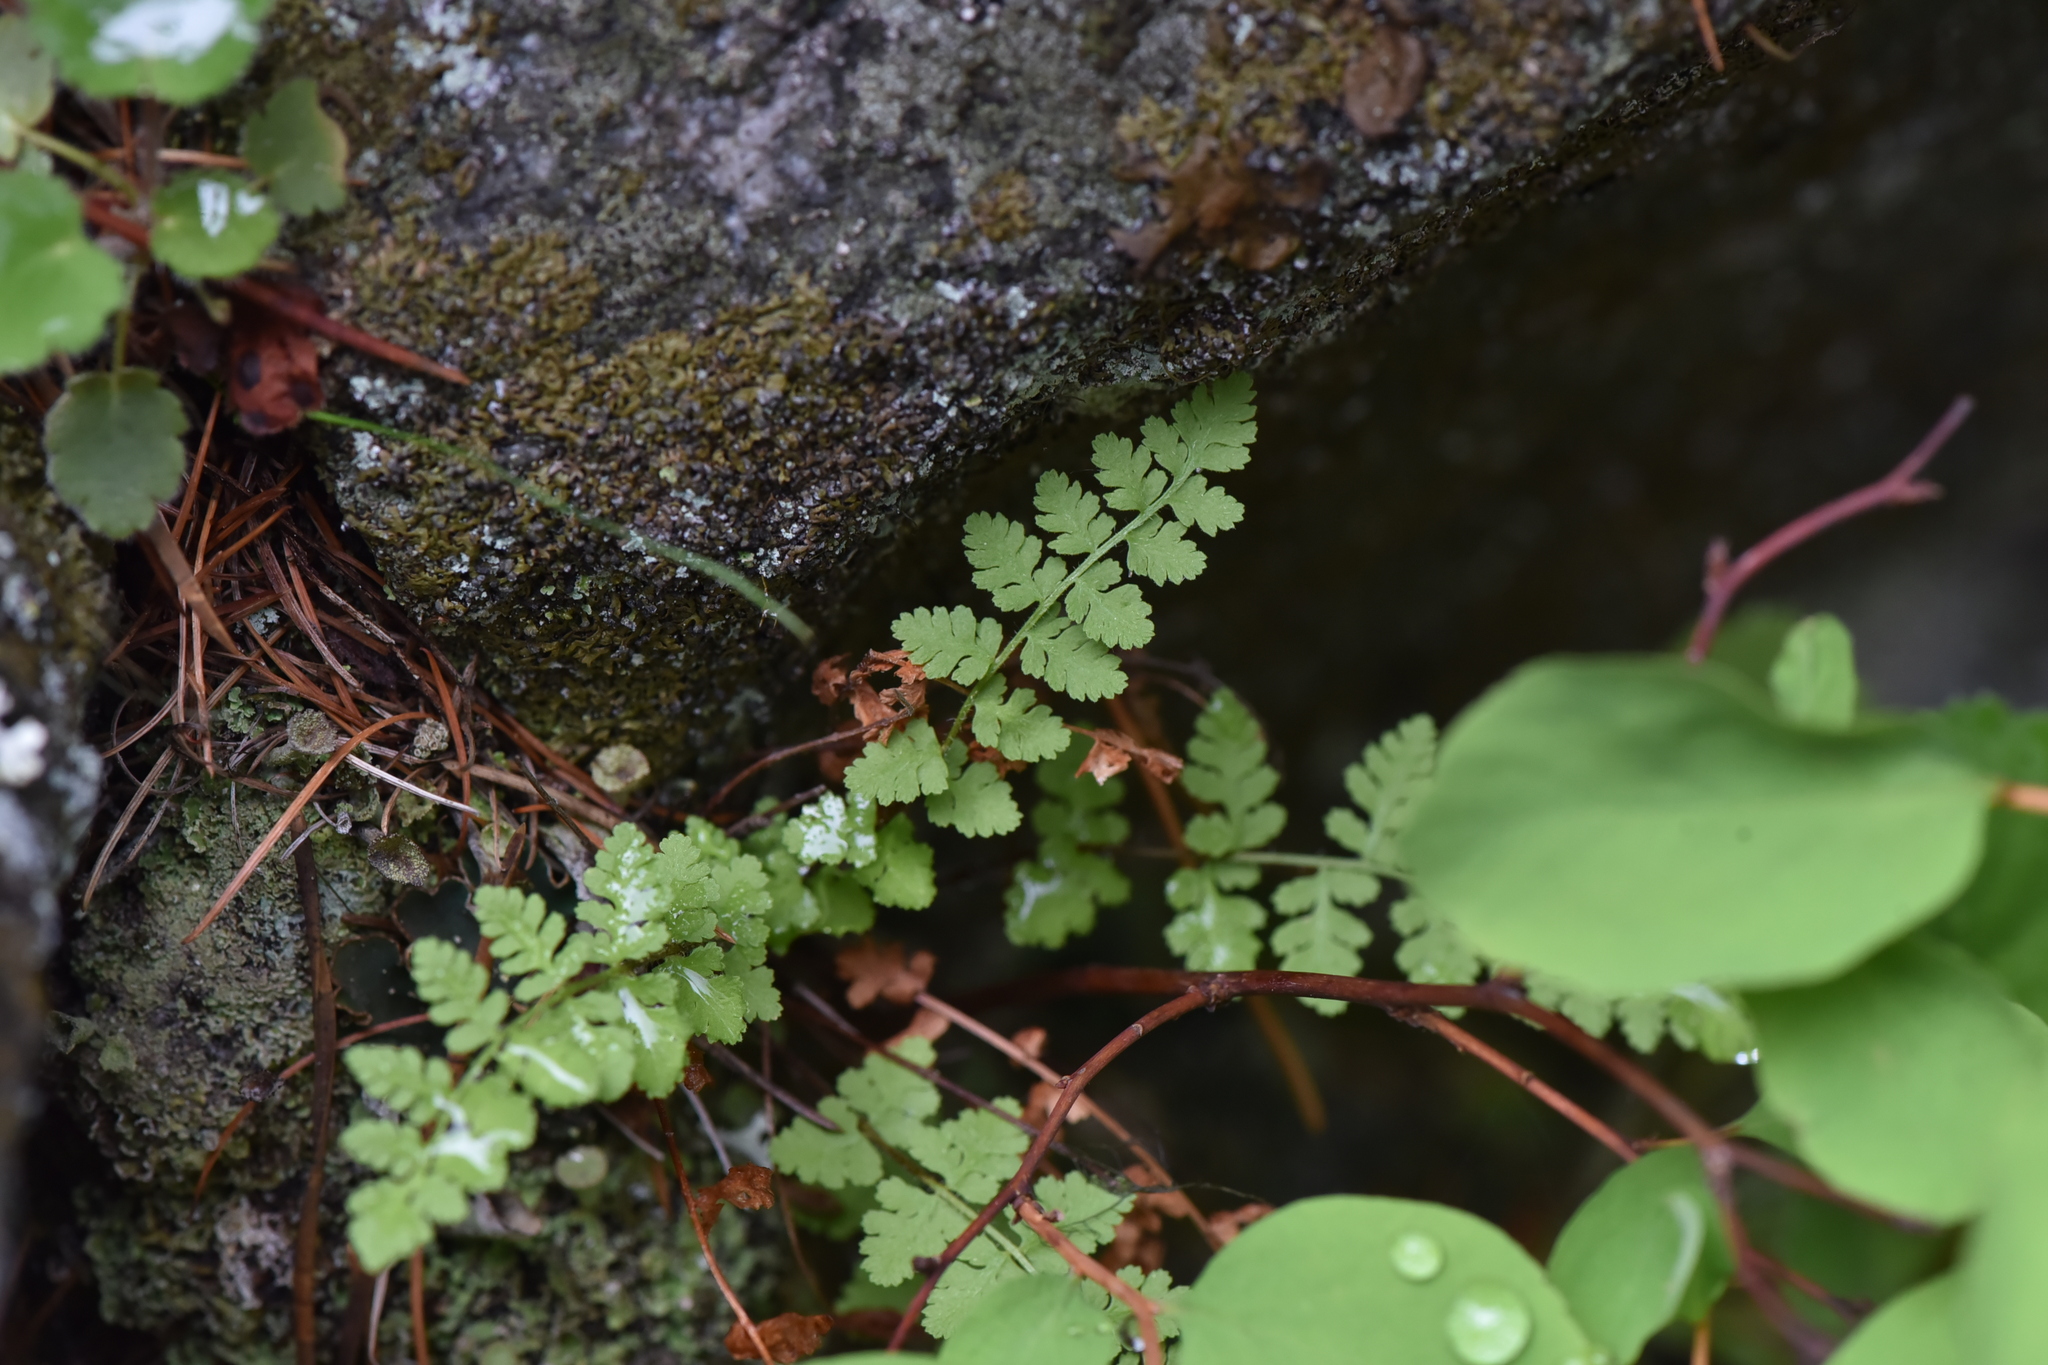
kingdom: Plantae
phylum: Tracheophyta
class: Polypodiopsida
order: Polypodiales
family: Woodsiaceae
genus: Physematium
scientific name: Physematium scopulinum
